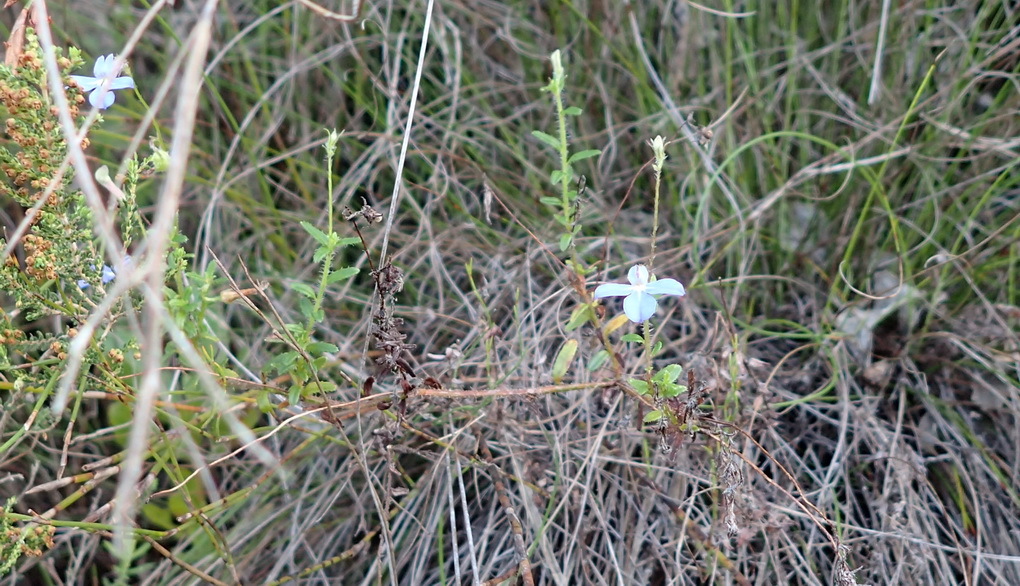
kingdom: Plantae
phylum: Tracheophyta
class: Magnoliopsida
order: Asterales
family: Campanulaceae
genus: Lobelia
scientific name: Lobelia neglecta
